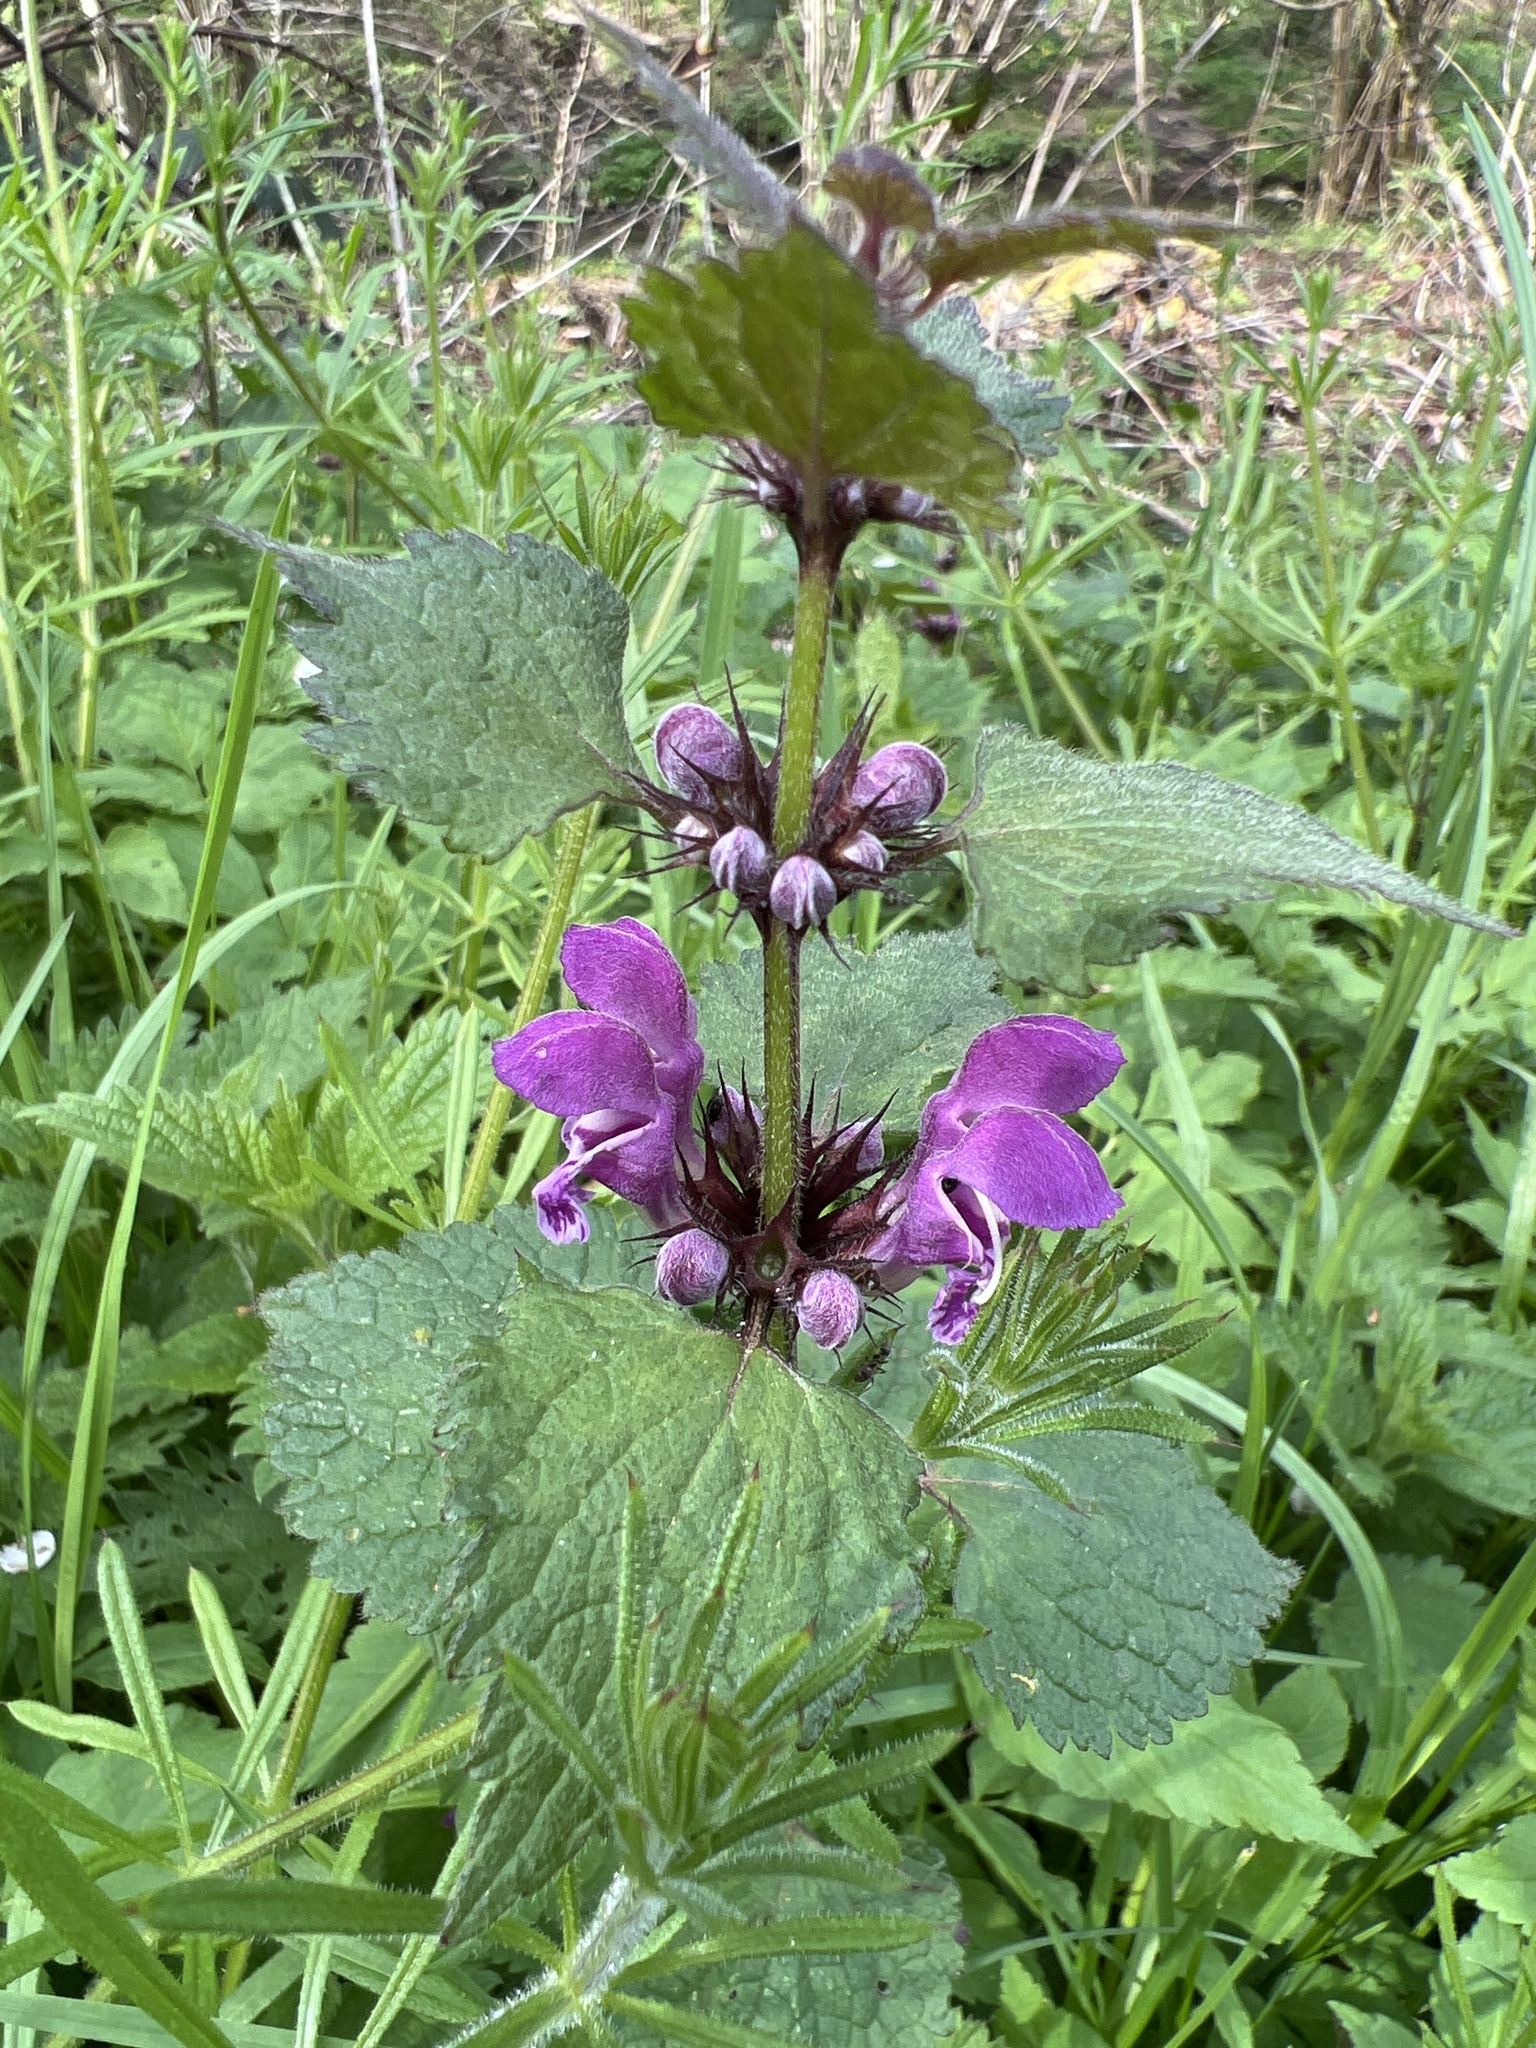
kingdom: Plantae
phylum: Tracheophyta
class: Magnoliopsida
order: Lamiales
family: Lamiaceae
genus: Lamium
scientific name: Lamium maculatum
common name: Spotted dead-nettle
